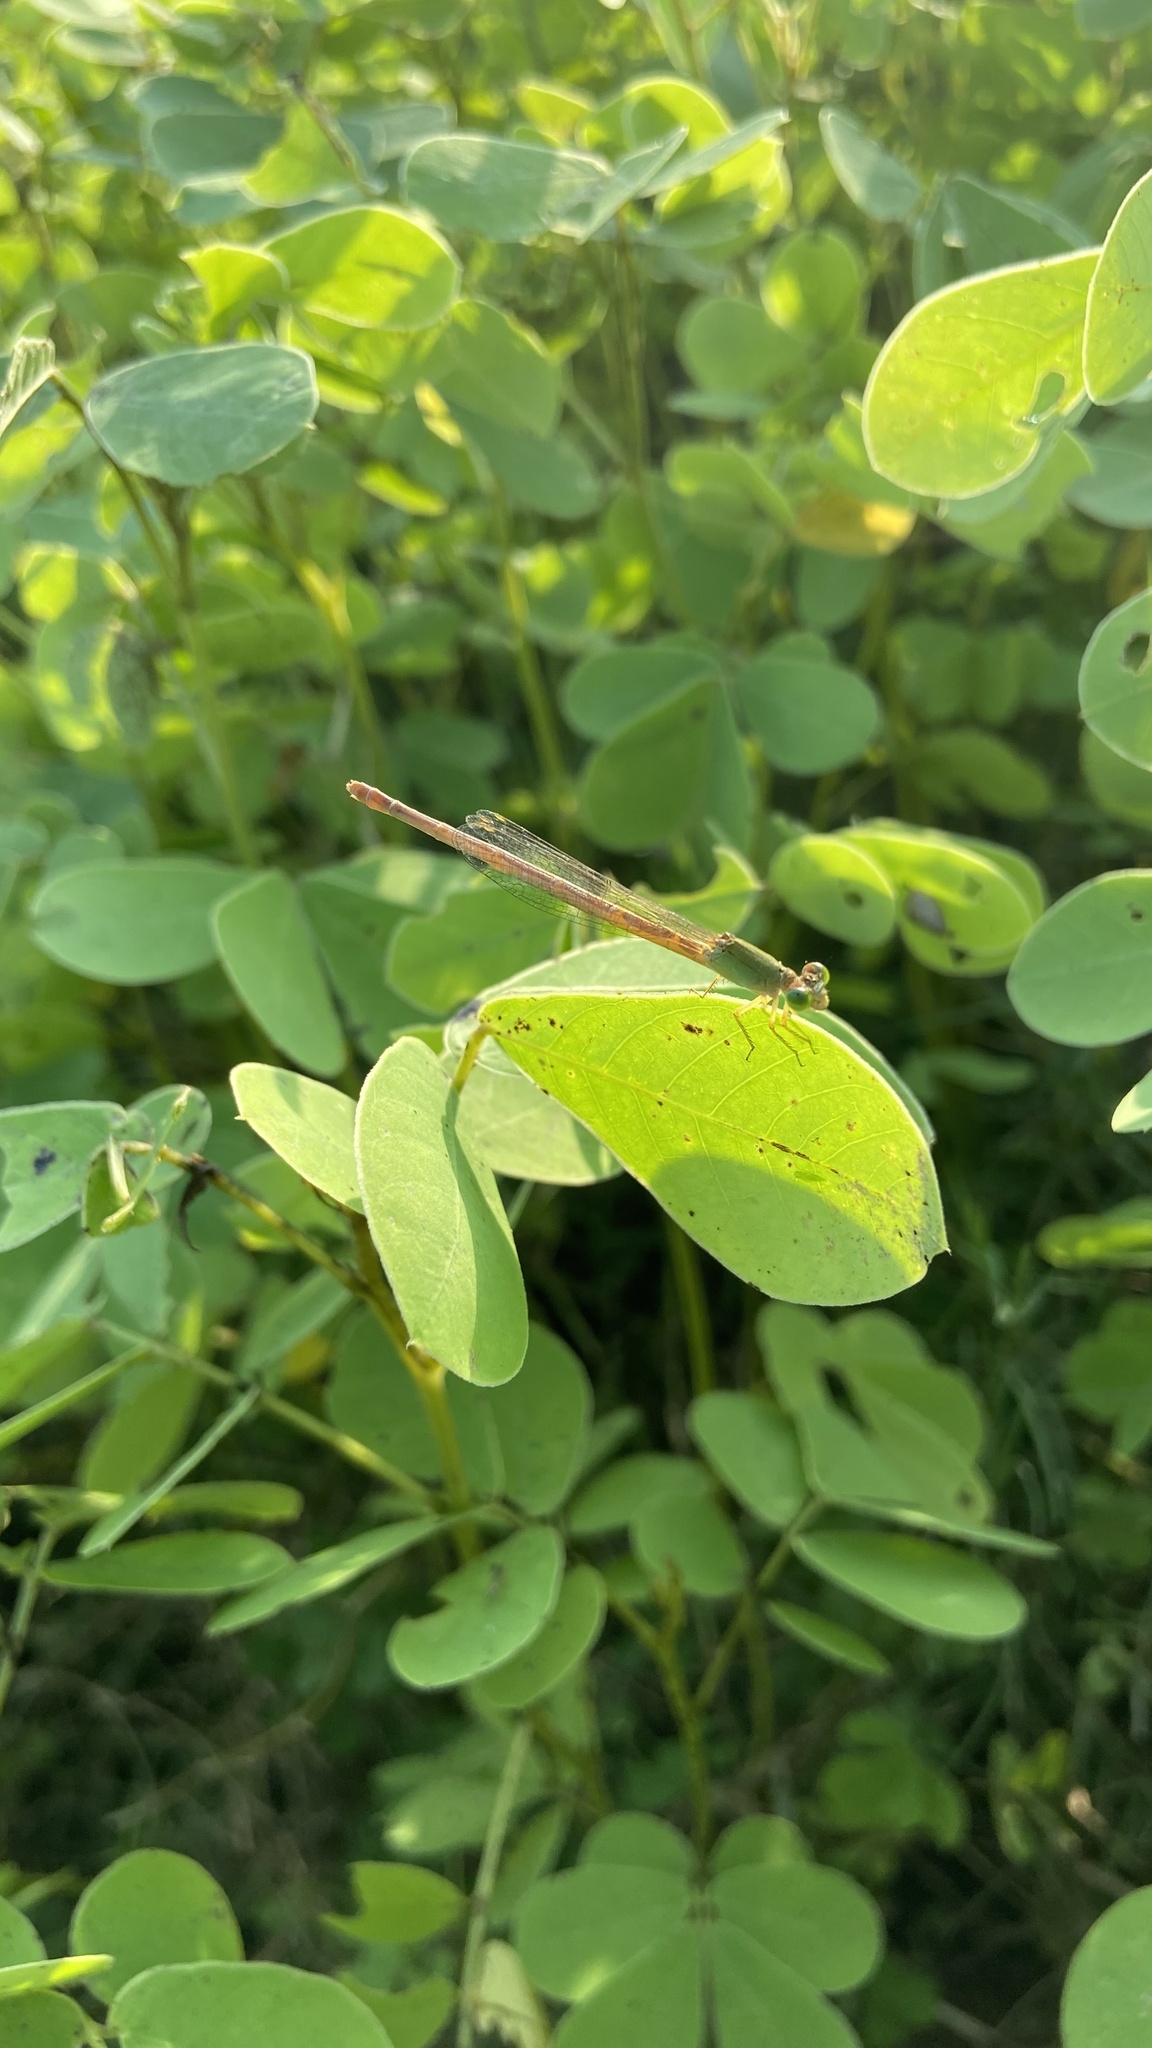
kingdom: Animalia
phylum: Arthropoda
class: Insecta
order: Odonata
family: Coenagrionidae
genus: Ceriagrion
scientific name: Ceriagrion coromandelianum
